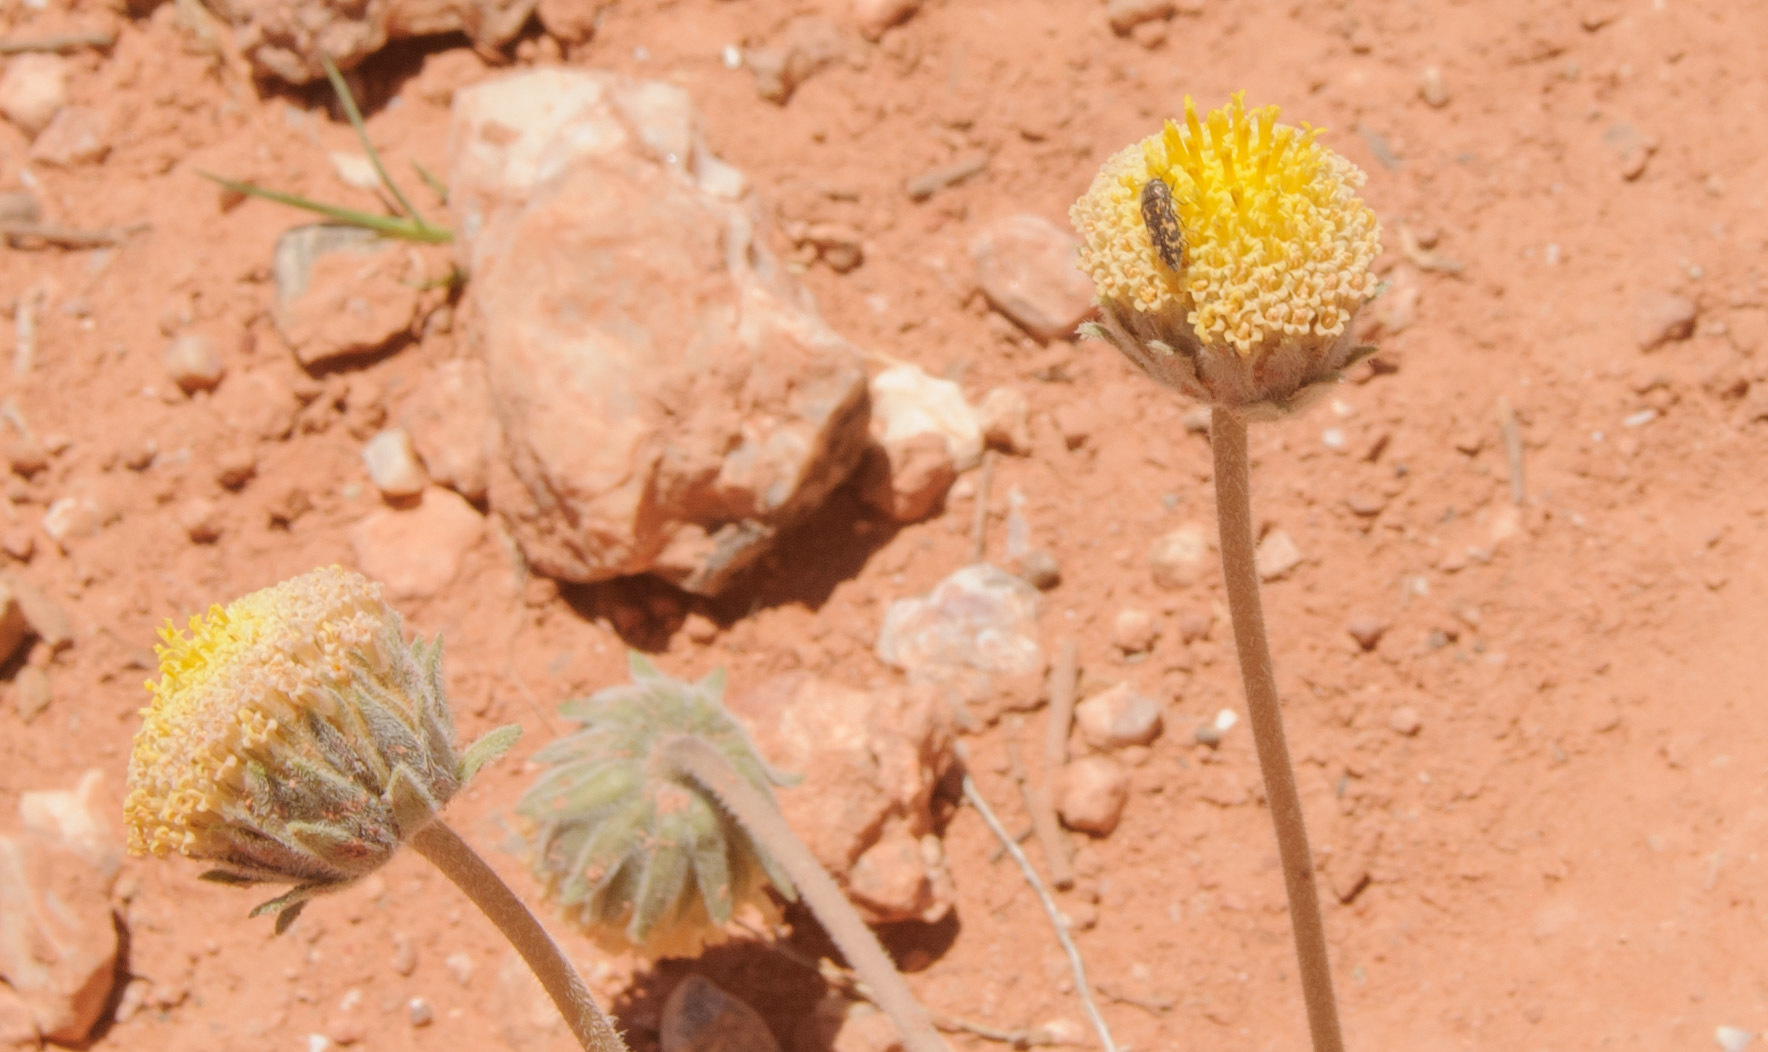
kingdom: Plantae
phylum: Tracheophyta
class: Magnoliopsida
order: Asterales
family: Asteraceae
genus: Encelia
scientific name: Encelia nutans
